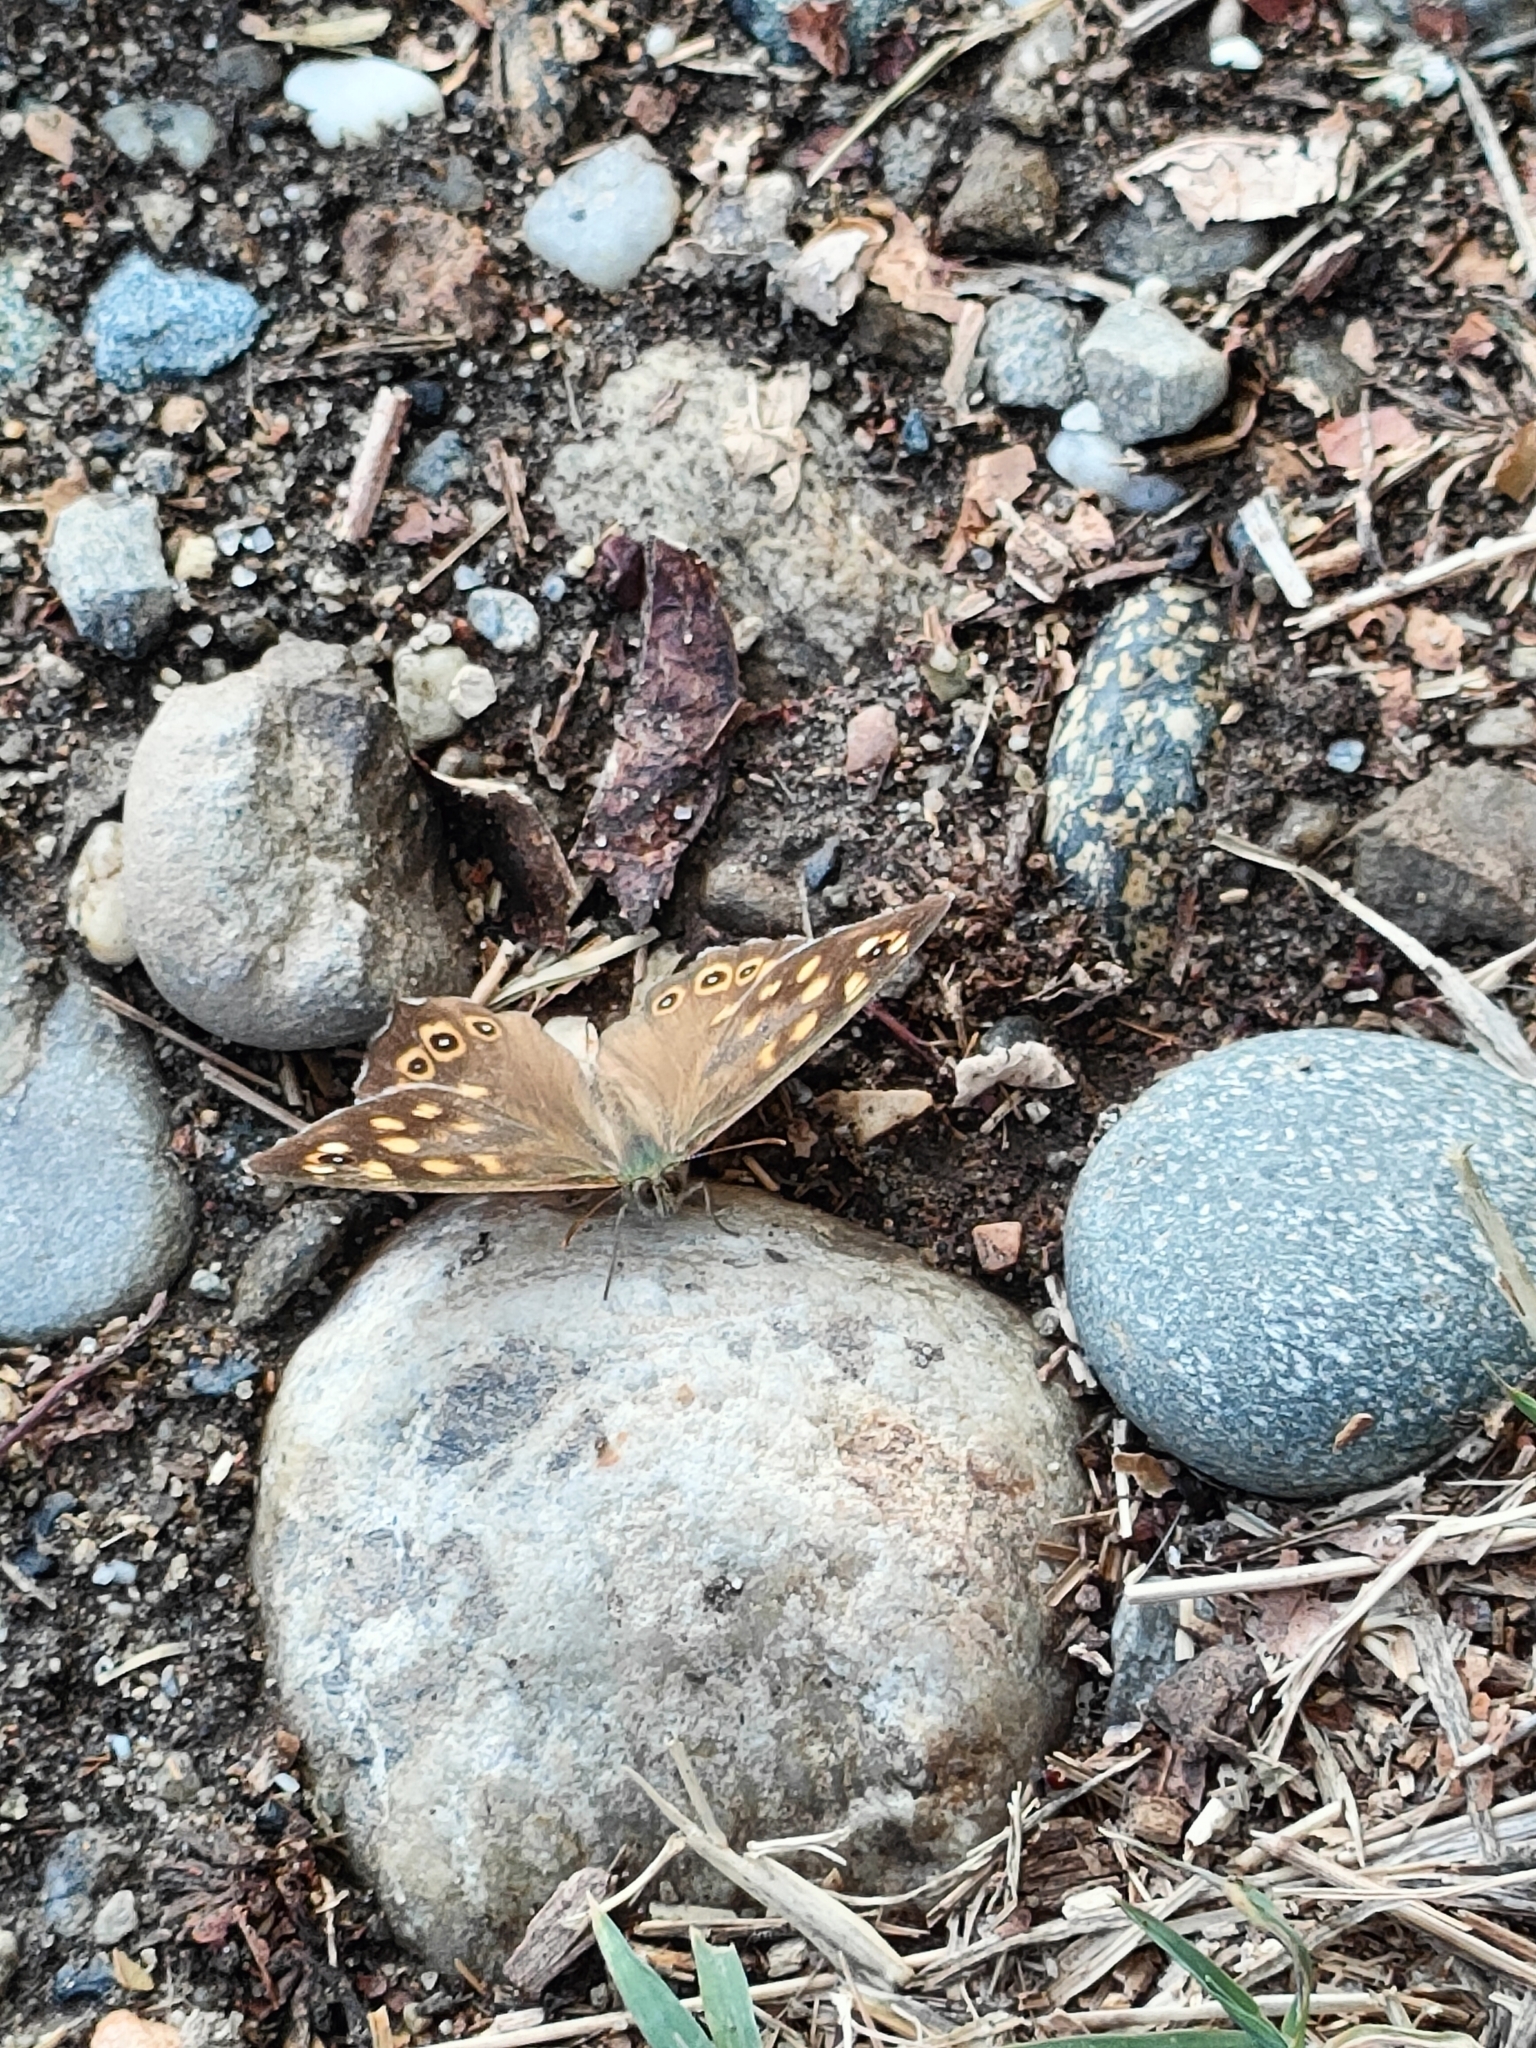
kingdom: Animalia
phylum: Arthropoda
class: Insecta
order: Lepidoptera
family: Nymphalidae
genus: Pararge
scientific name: Pararge aegeria
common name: Speckled wood
